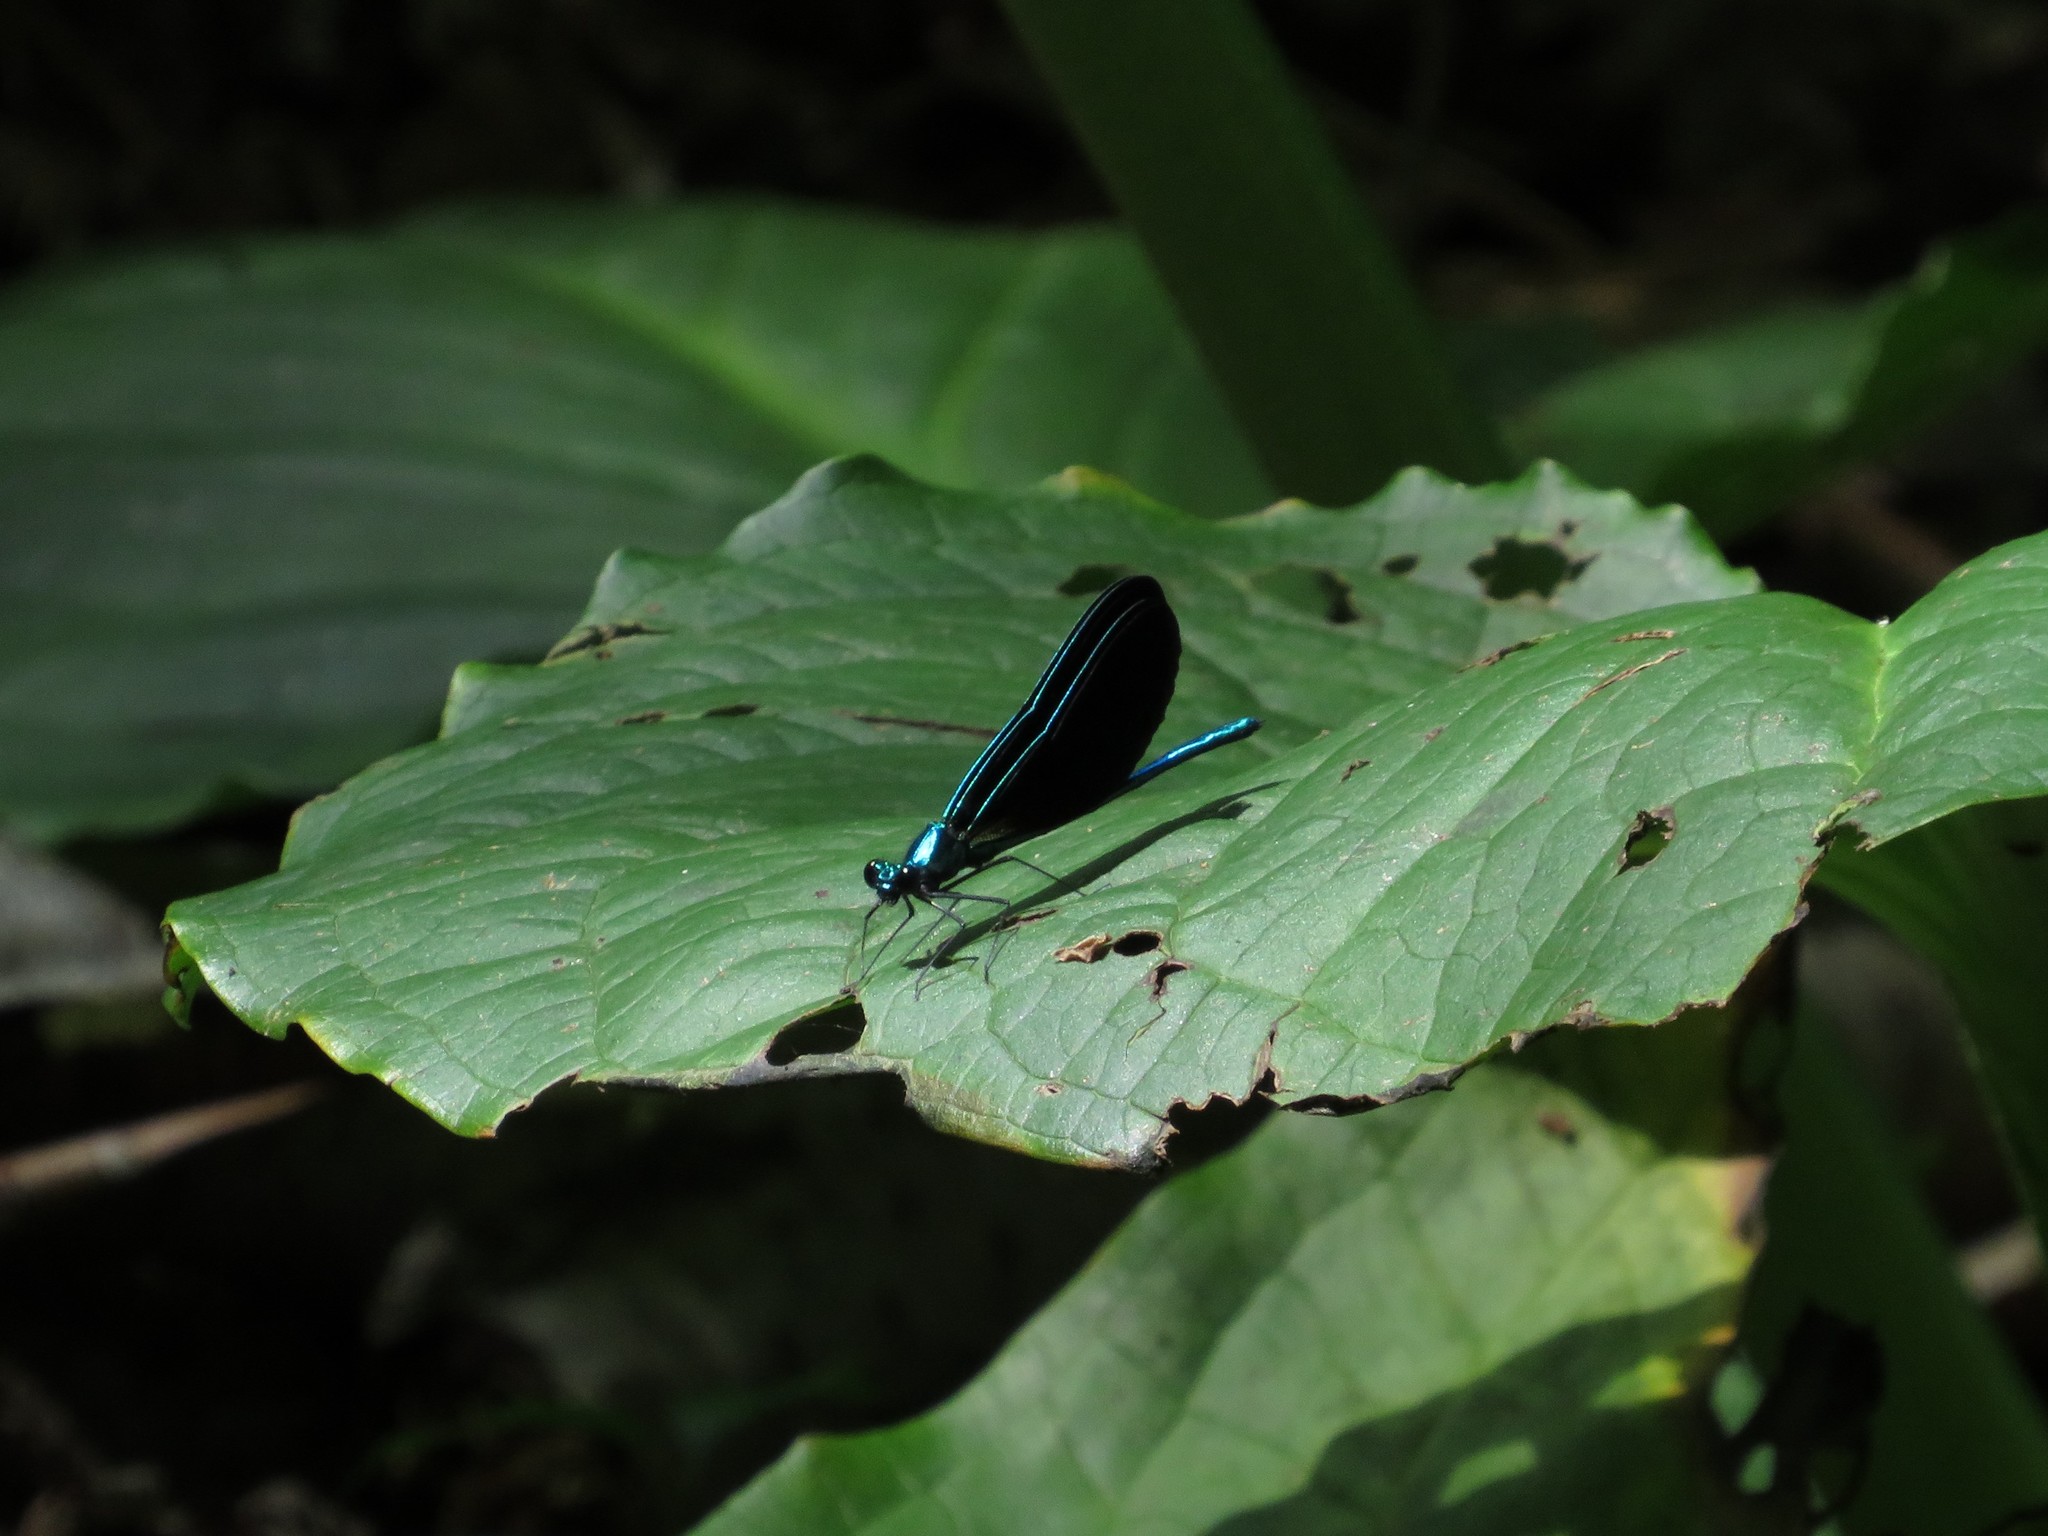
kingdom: Animalia
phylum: Arthropoda
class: Insecta
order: Odonata
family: Calopterygidae
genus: Calopteryx
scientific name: Calopteryx maculata
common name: Ebony jewelwing
